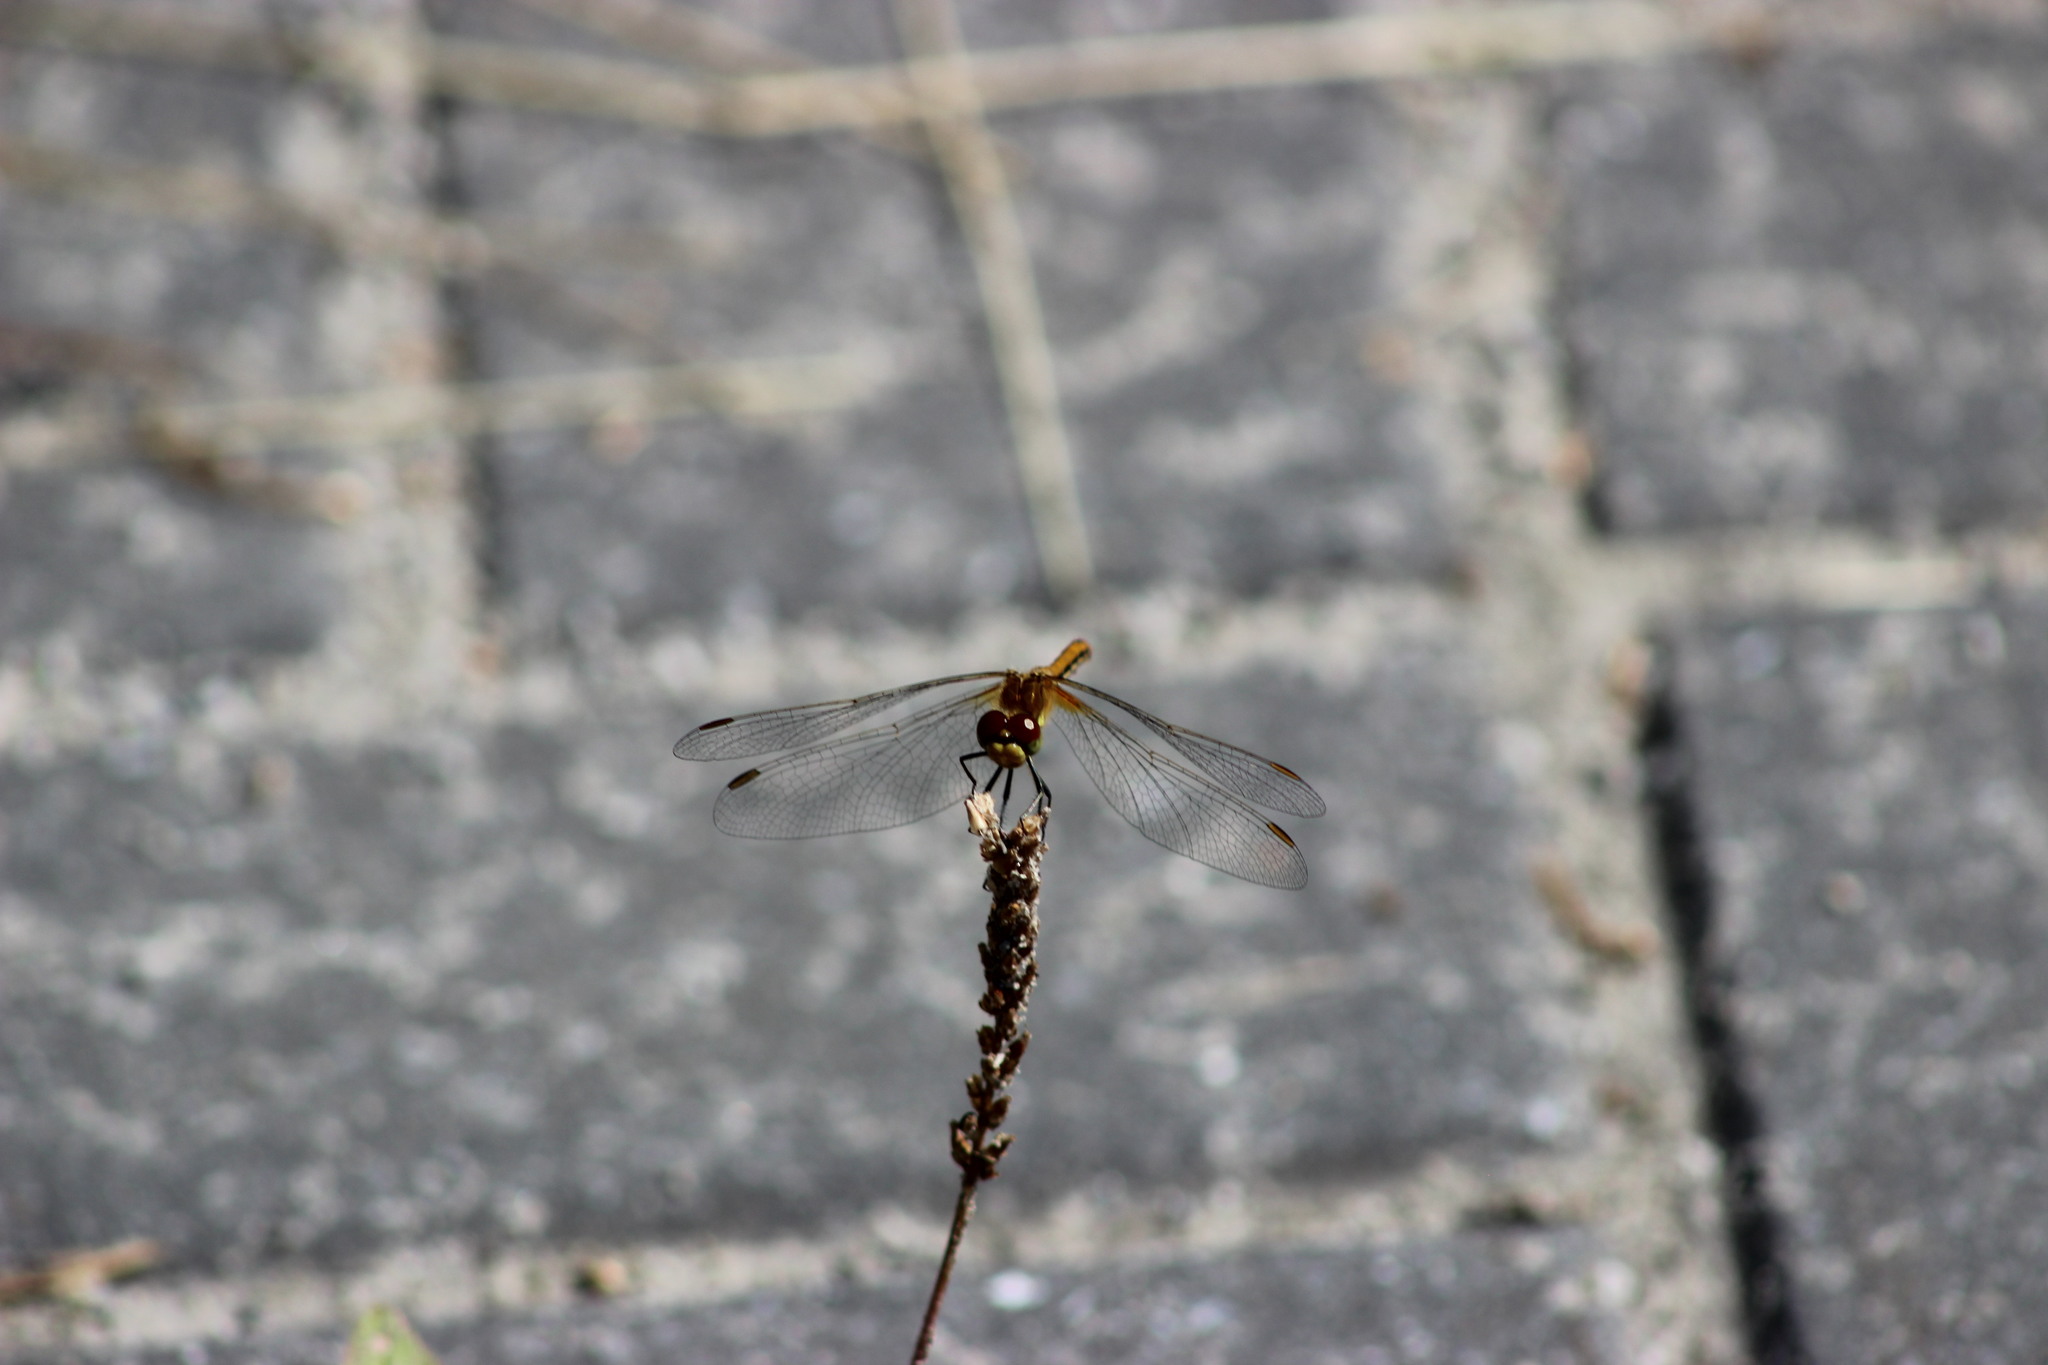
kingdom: Animalia
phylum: Arthropoda
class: Insecta
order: Odonata
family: Libellulidae
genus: Sympetrum
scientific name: Sympetrum flaveolum
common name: Yellow-winged darter
